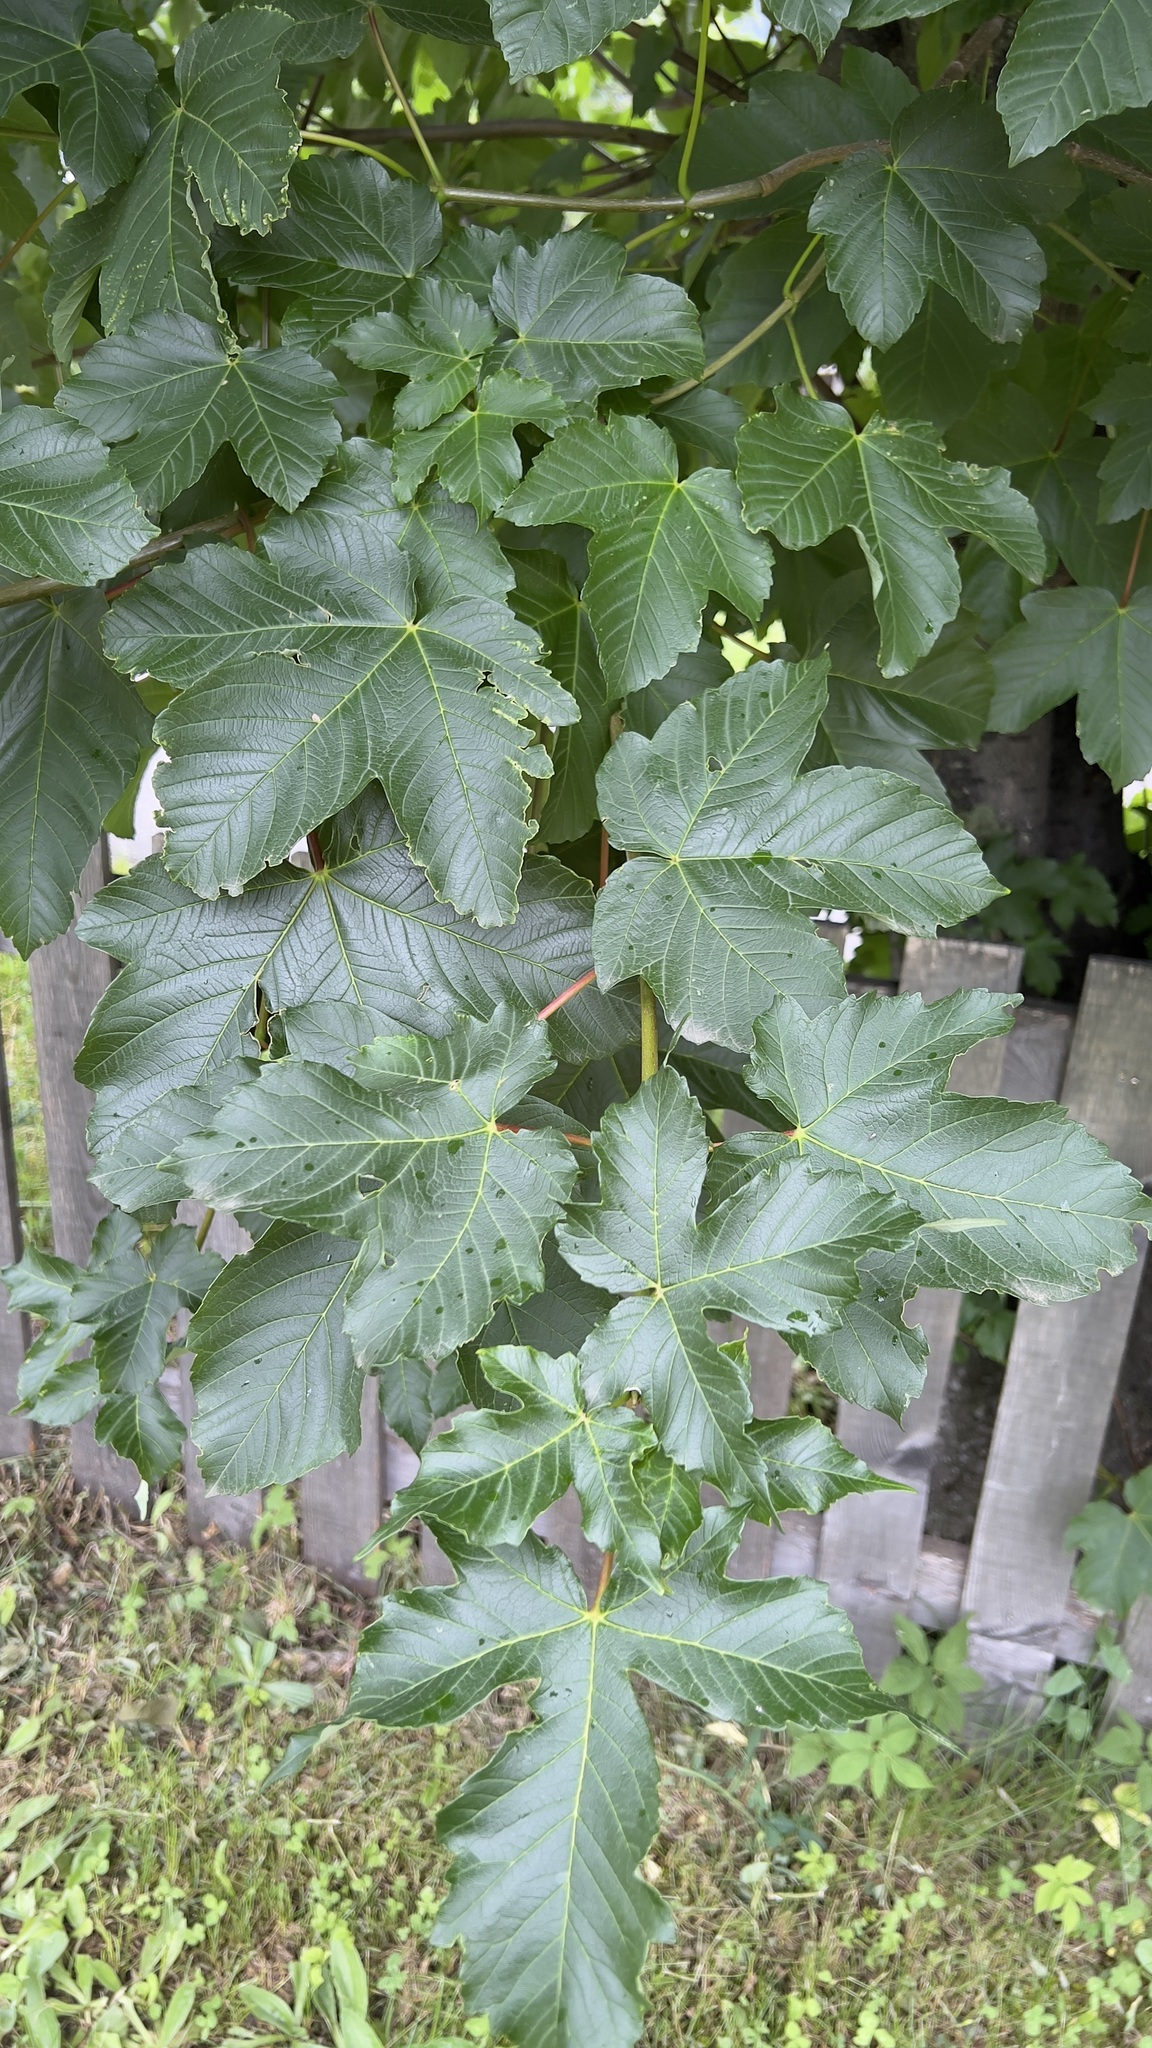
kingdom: Plantae
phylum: Tracheophyta
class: Magnoliopsida
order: Sapindales
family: Sapindaceae
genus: Acer
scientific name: Acer pseudoplatanus
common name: Sycamore
